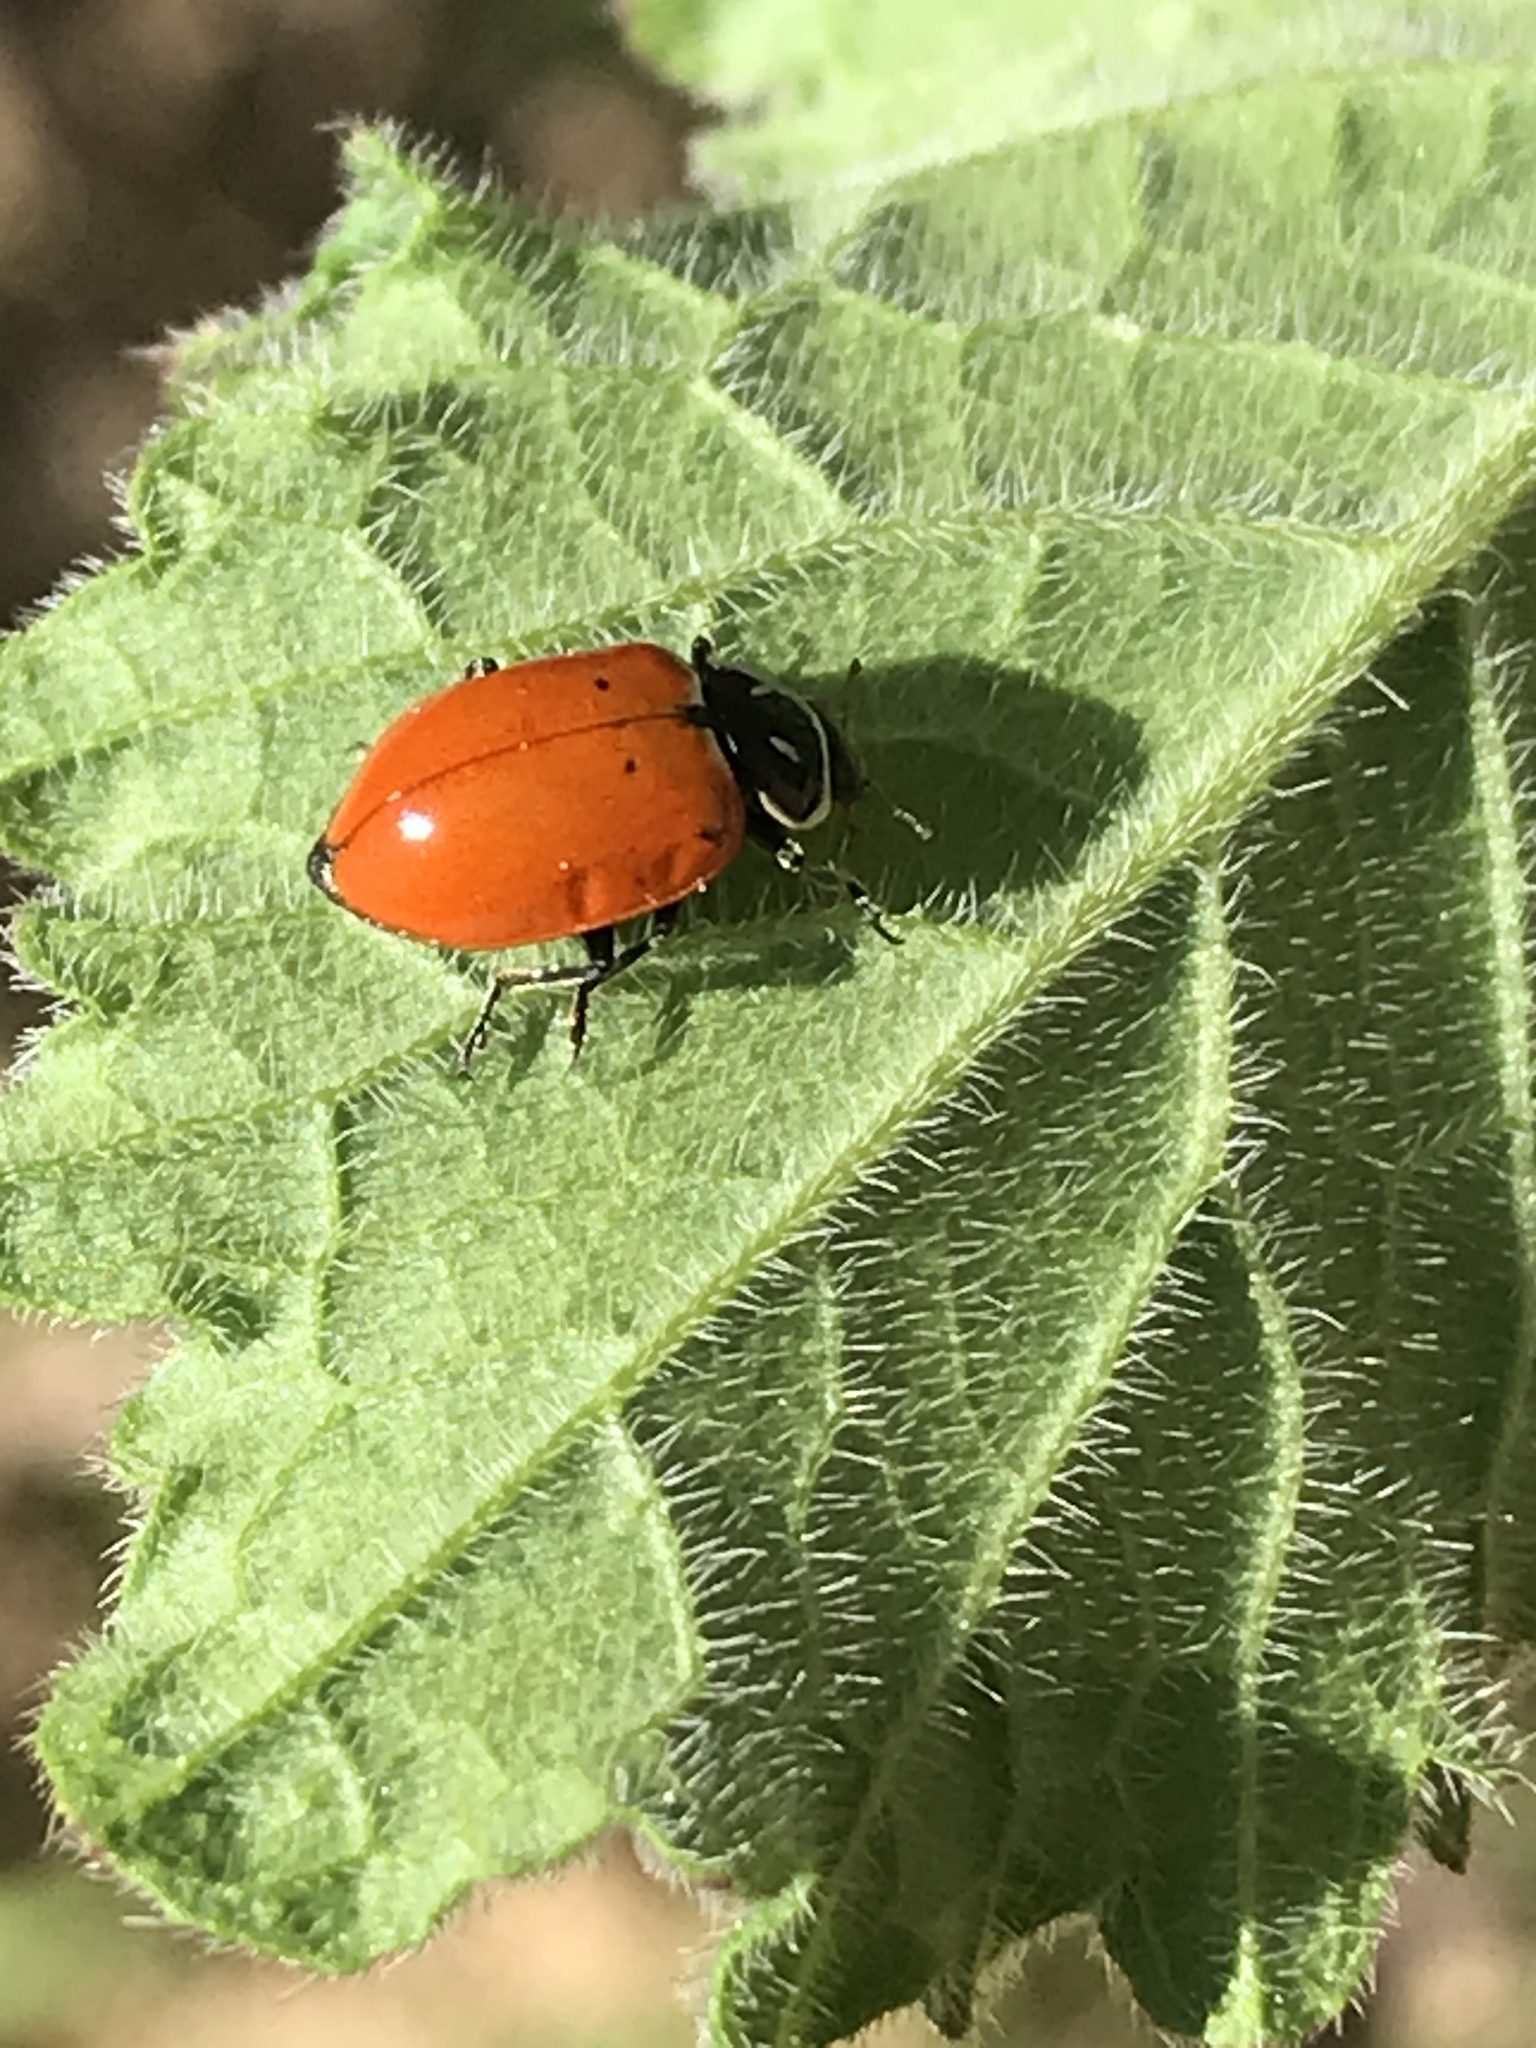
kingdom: Animalia
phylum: Arthropoda
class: Insecta
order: Coleoptera
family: Coccinellidae
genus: Hippodamia
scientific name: Hippodamia convergens
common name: Convergent lady beetle
